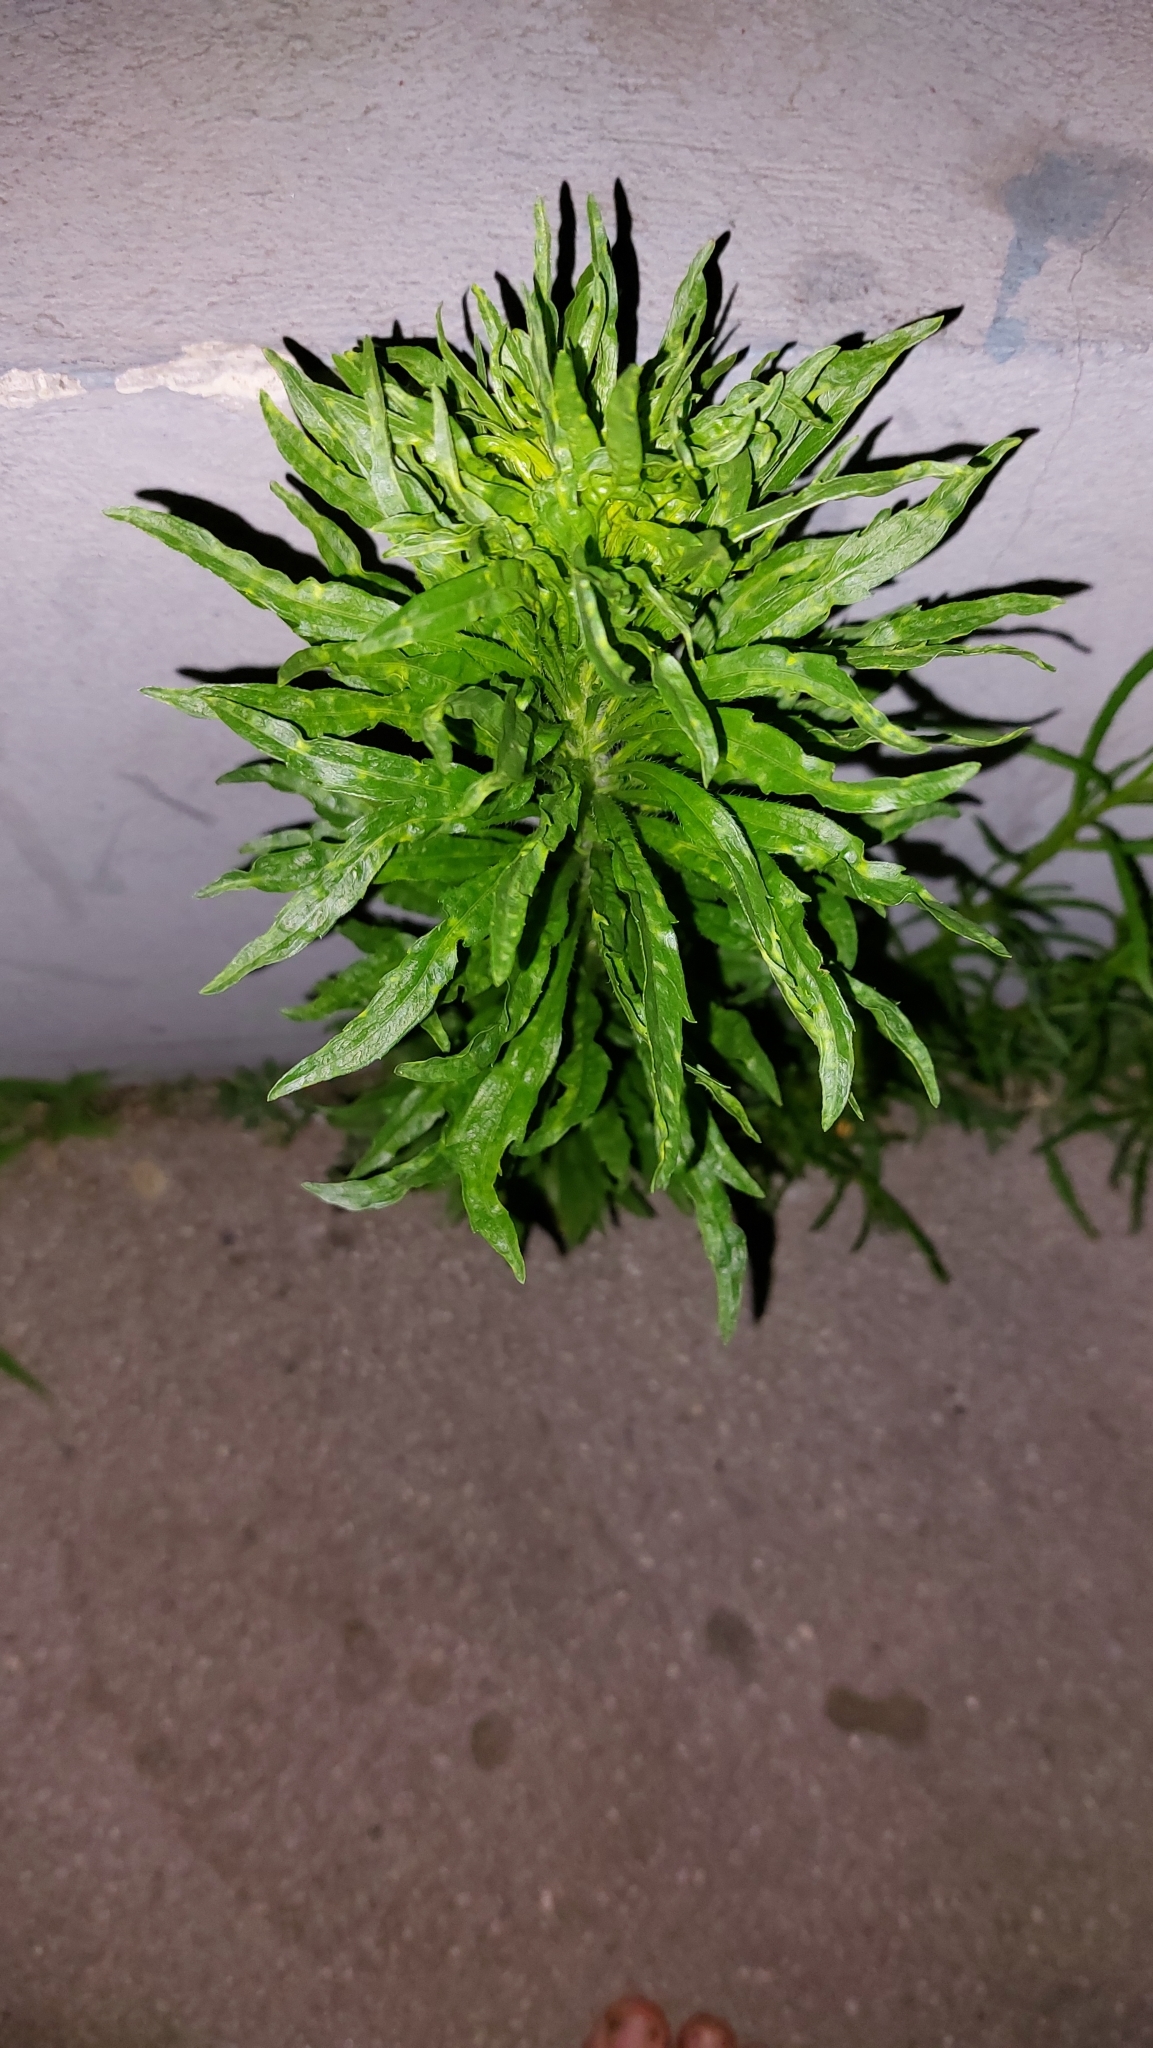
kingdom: Plantae
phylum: Tracheophyta
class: Magnoliopsida
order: Asterales
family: Asteraceae
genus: Erigeron
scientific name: Erigeron canadensis
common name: Canadian fleabane
